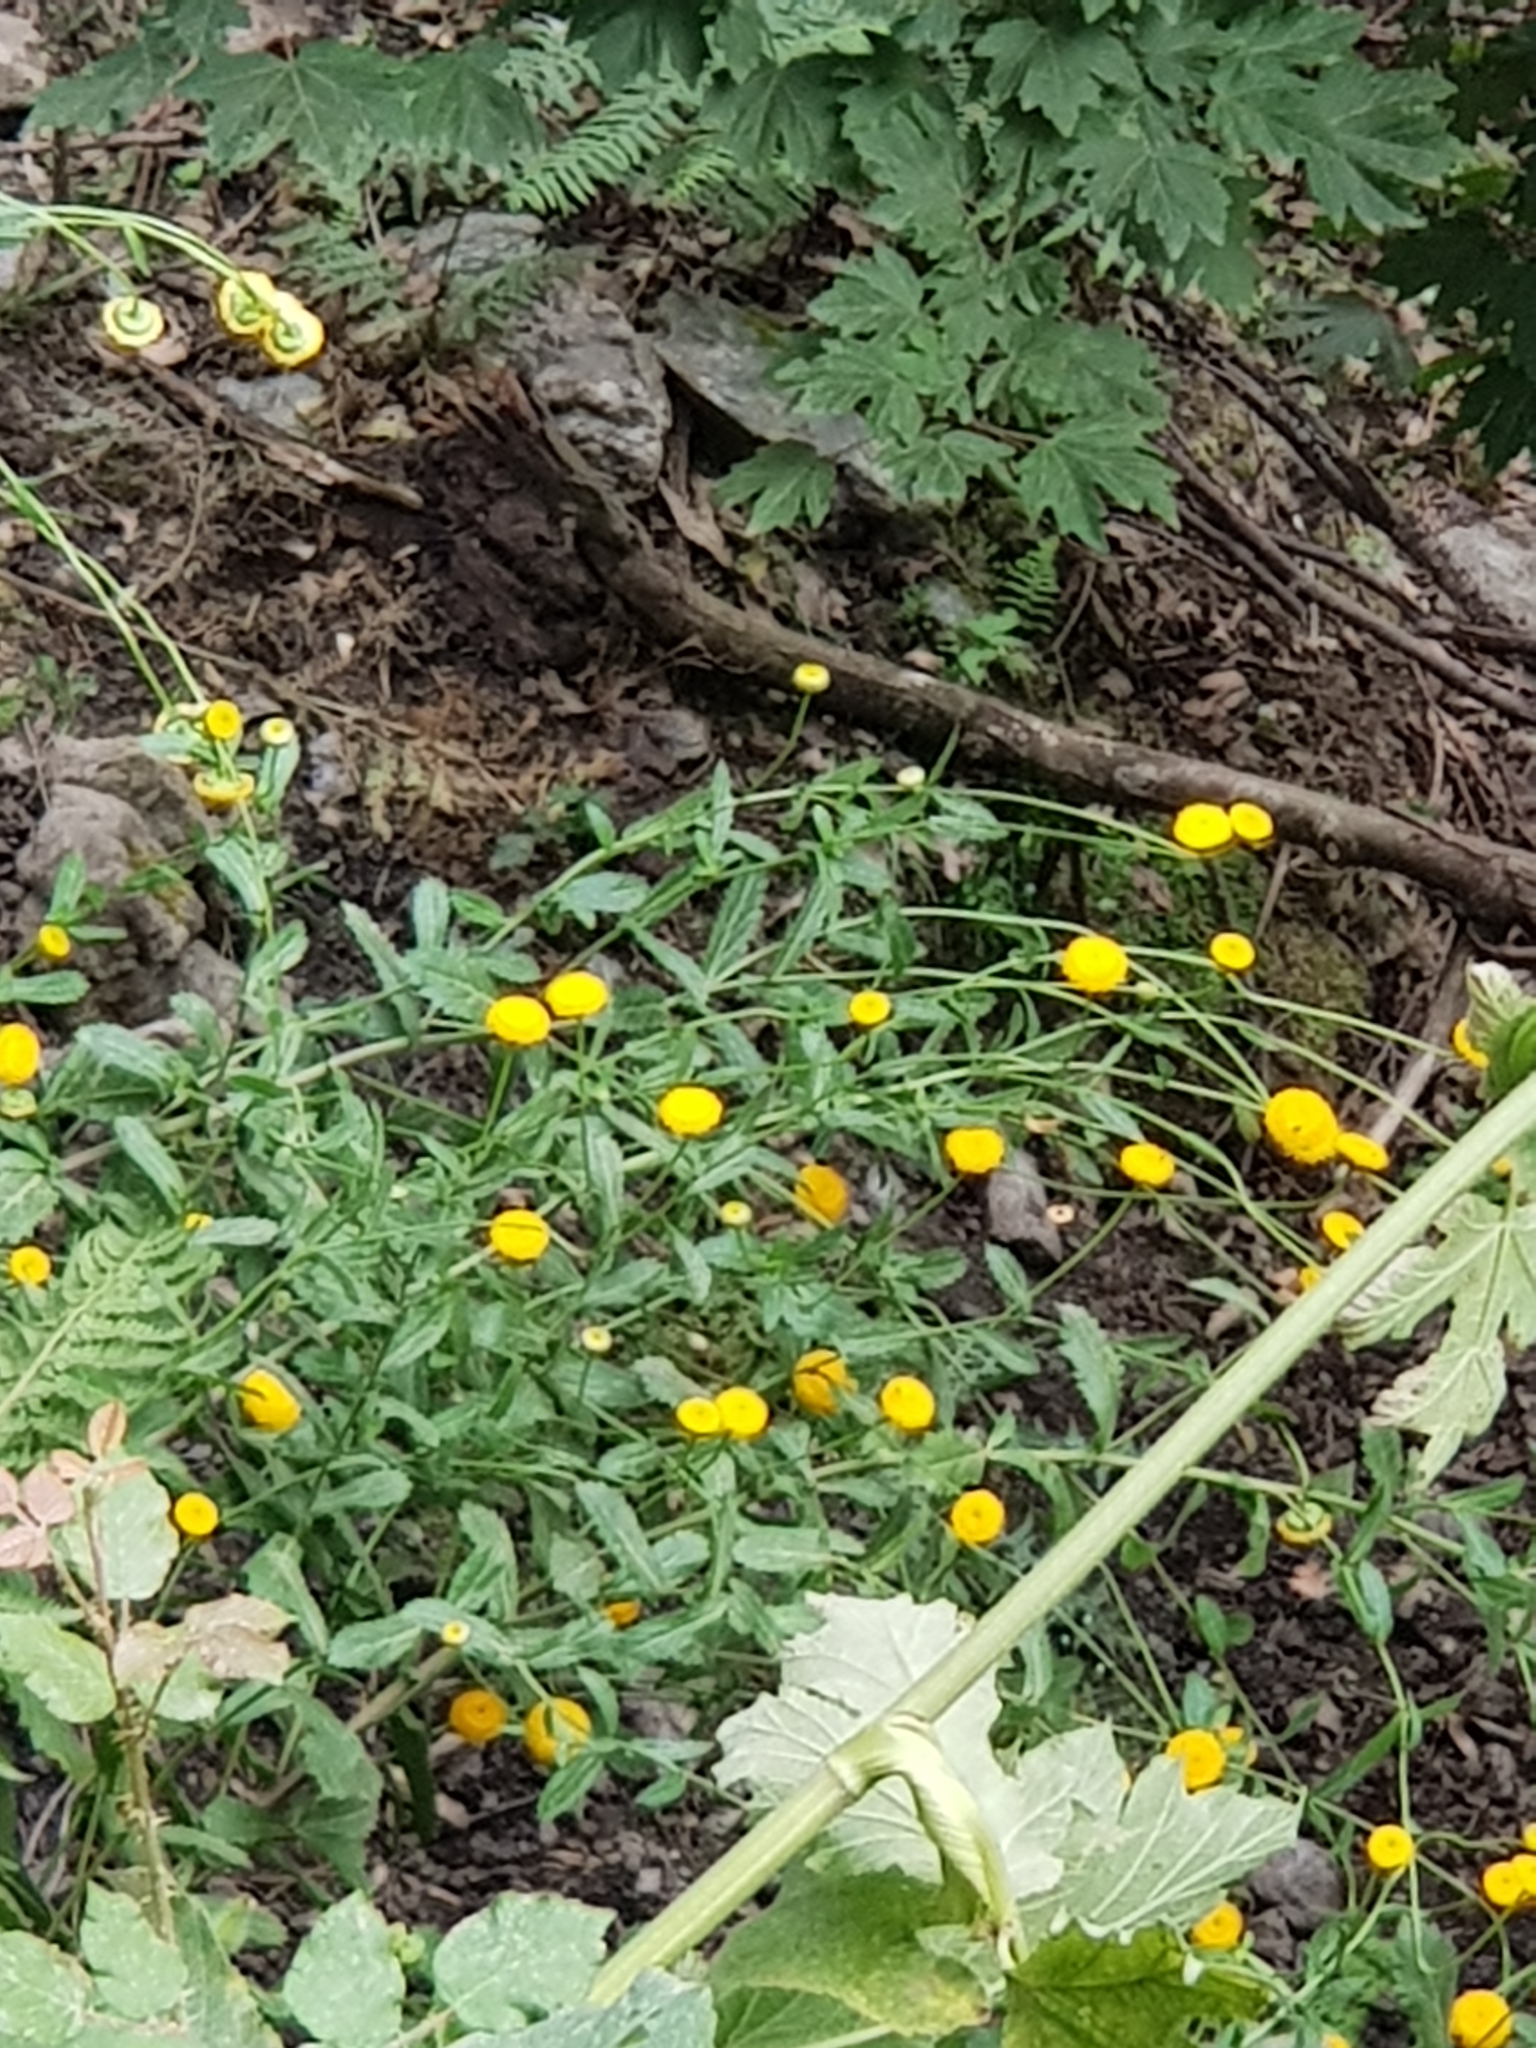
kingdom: Plantae
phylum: Tracheophyta
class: Magnoliopsida
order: Asterales
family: Asteraceae
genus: Plagius
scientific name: Plagius maghrebinus
